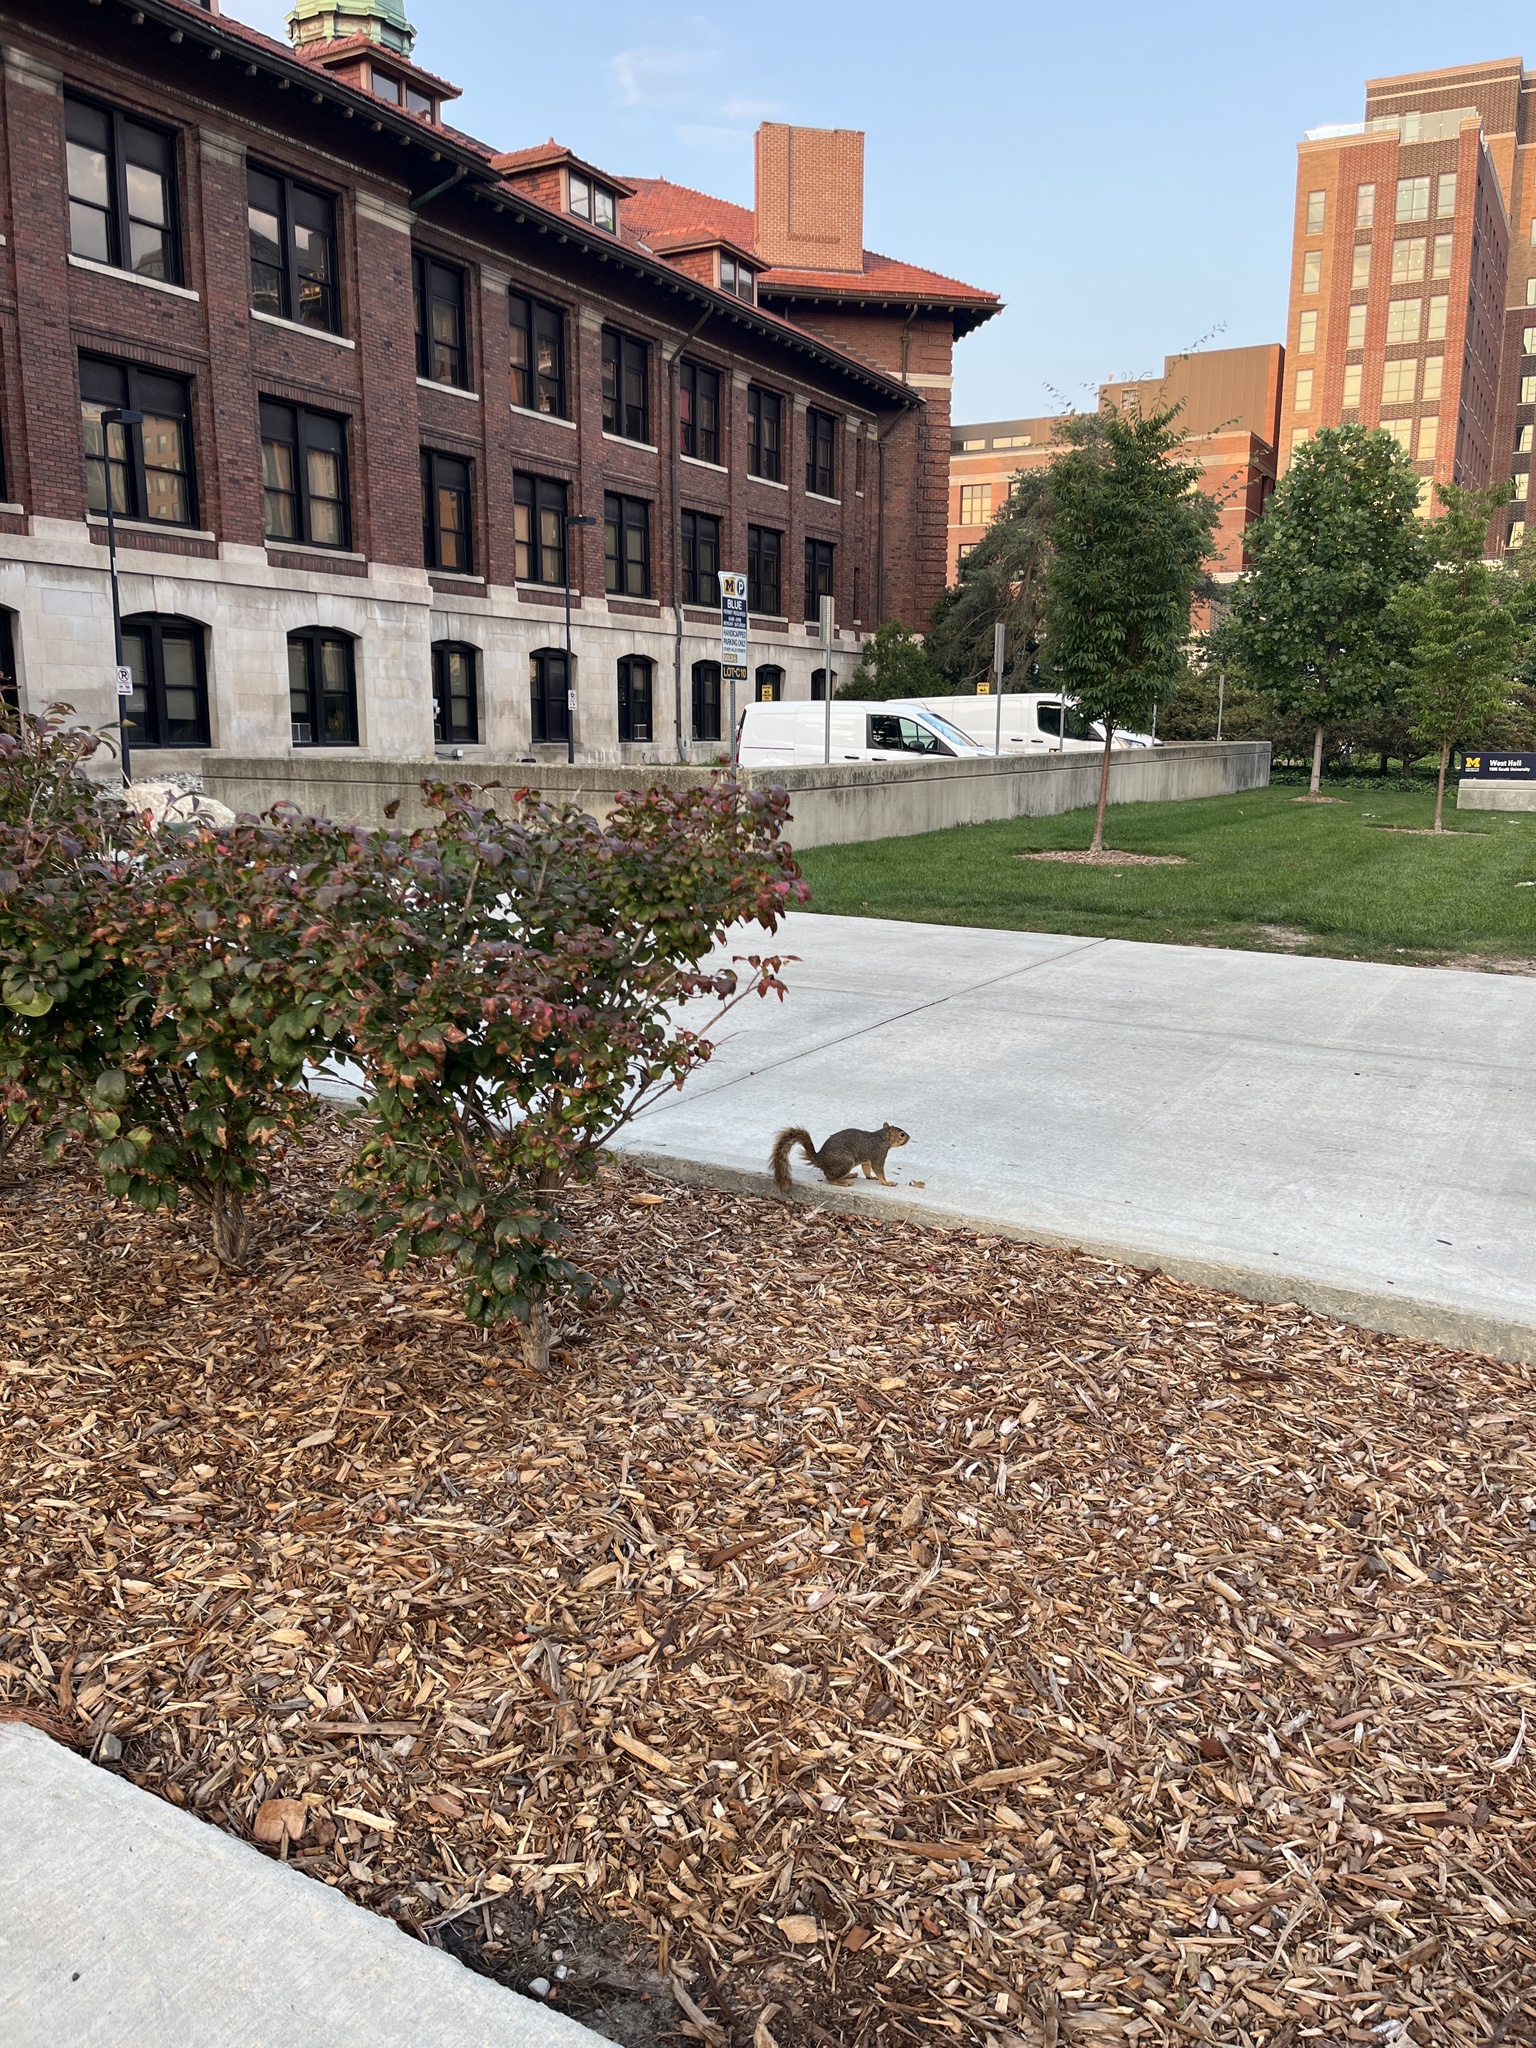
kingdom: Animalia
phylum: Chordata
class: Mammalia
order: Rodentia
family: Sciuridae
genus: Sciurus
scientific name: Sciurus niger
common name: Fox squirrel
